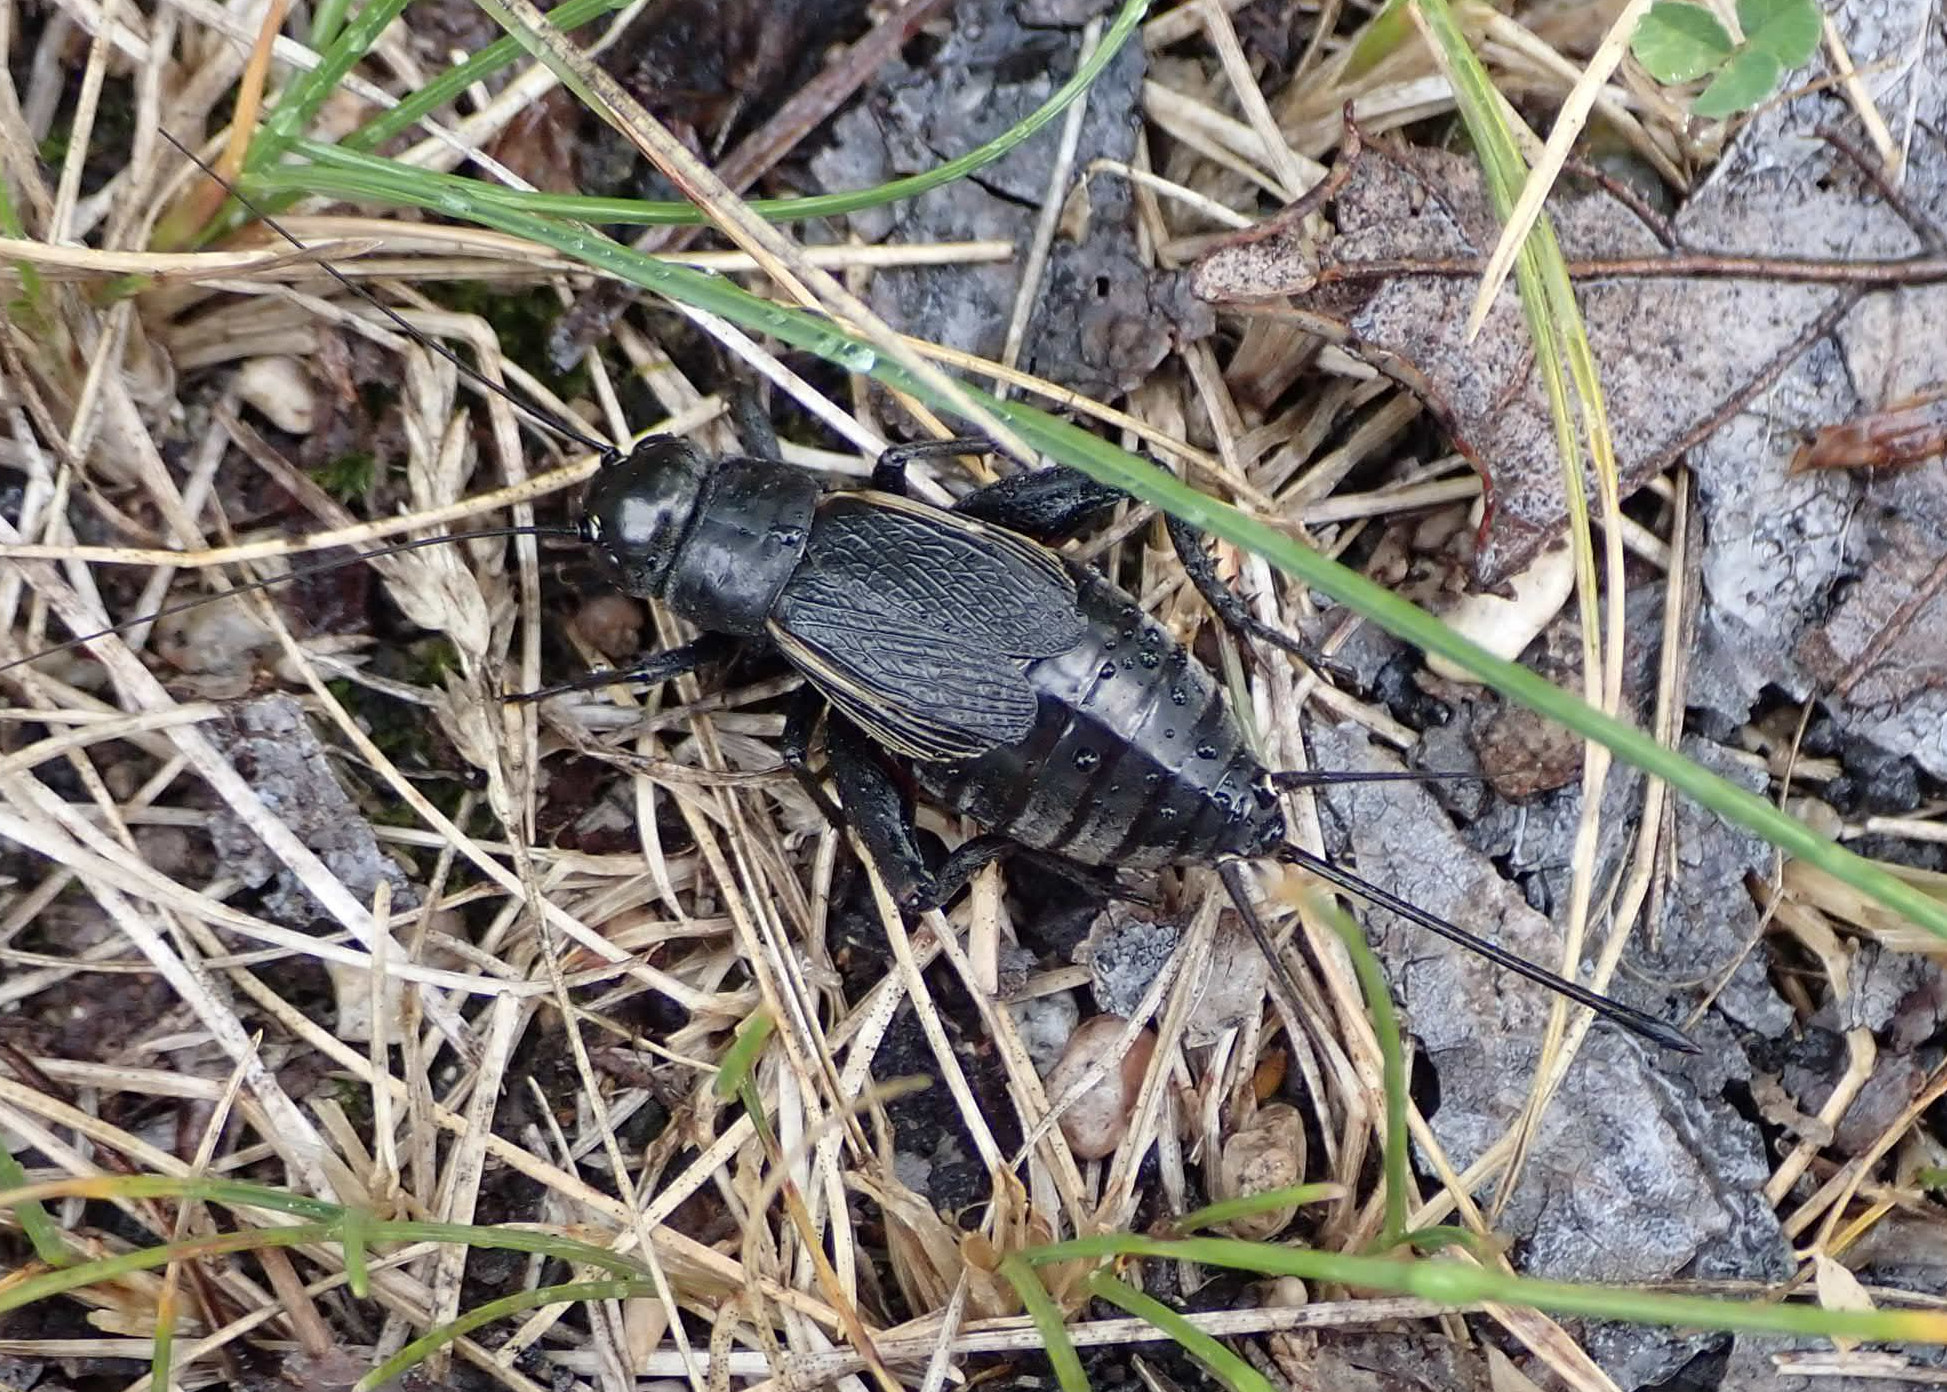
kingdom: Animalia
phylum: Arthropoda
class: Insecta
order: Orthoptera
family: Gryllidae
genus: Gryllus
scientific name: Gryllus pennsylvanicus
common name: Fall field cricket
